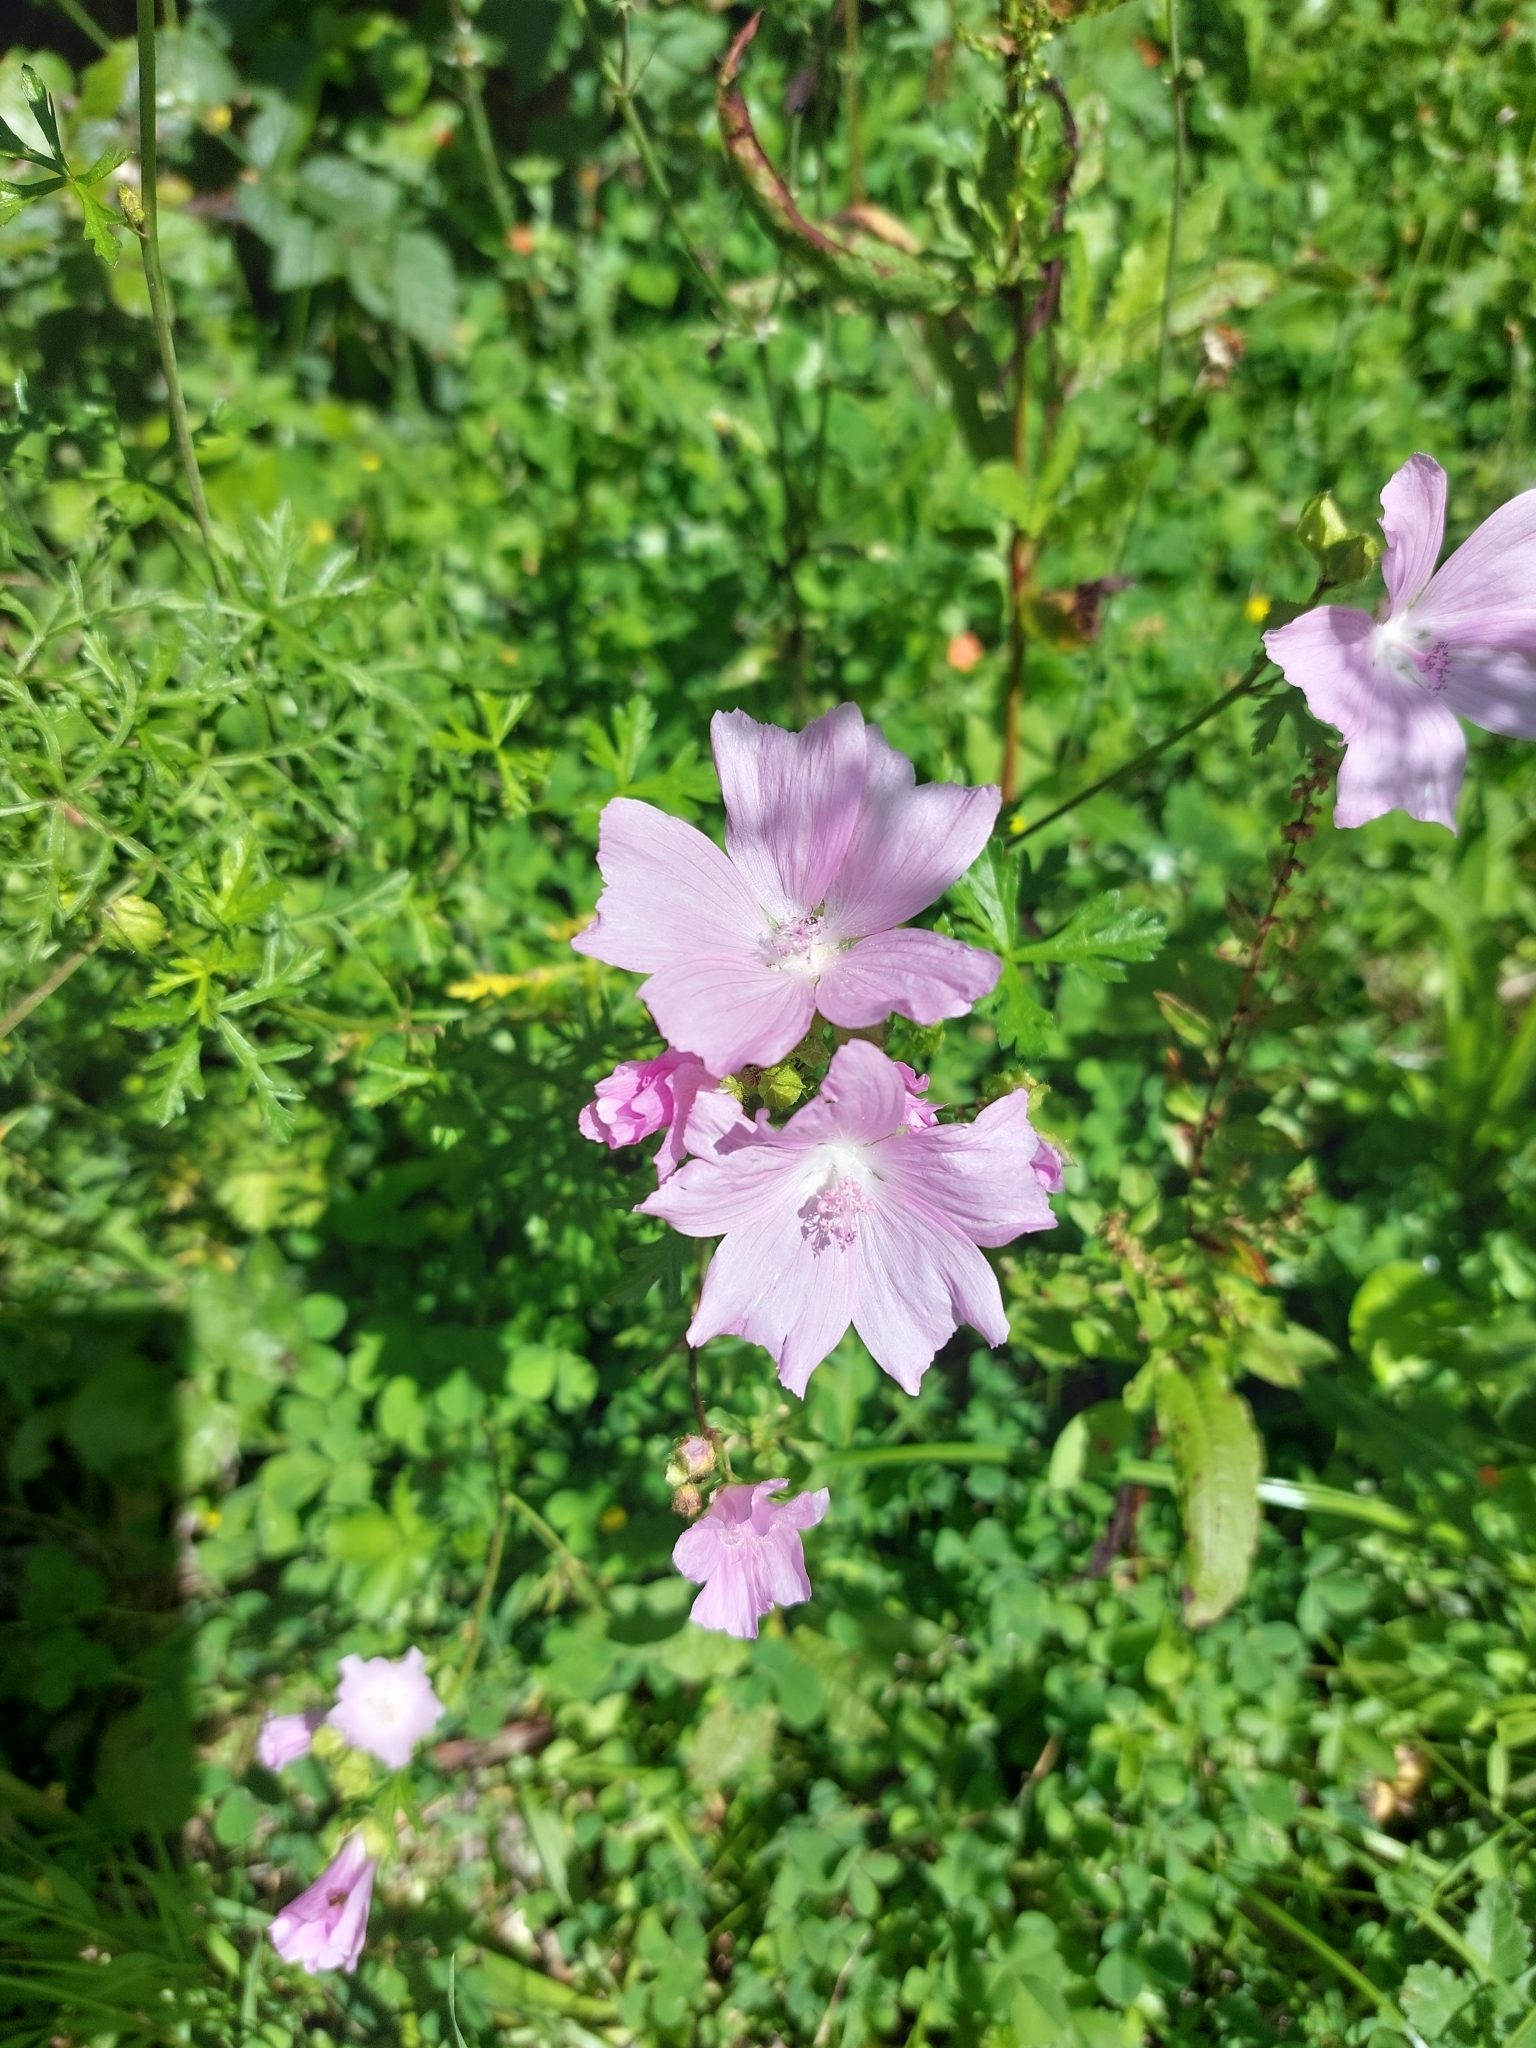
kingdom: Plantae
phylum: Tracheophyta
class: Magnoliopsida
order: Malvales
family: Malvaceae
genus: Malva
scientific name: Malva moschata
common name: Musk mallow
